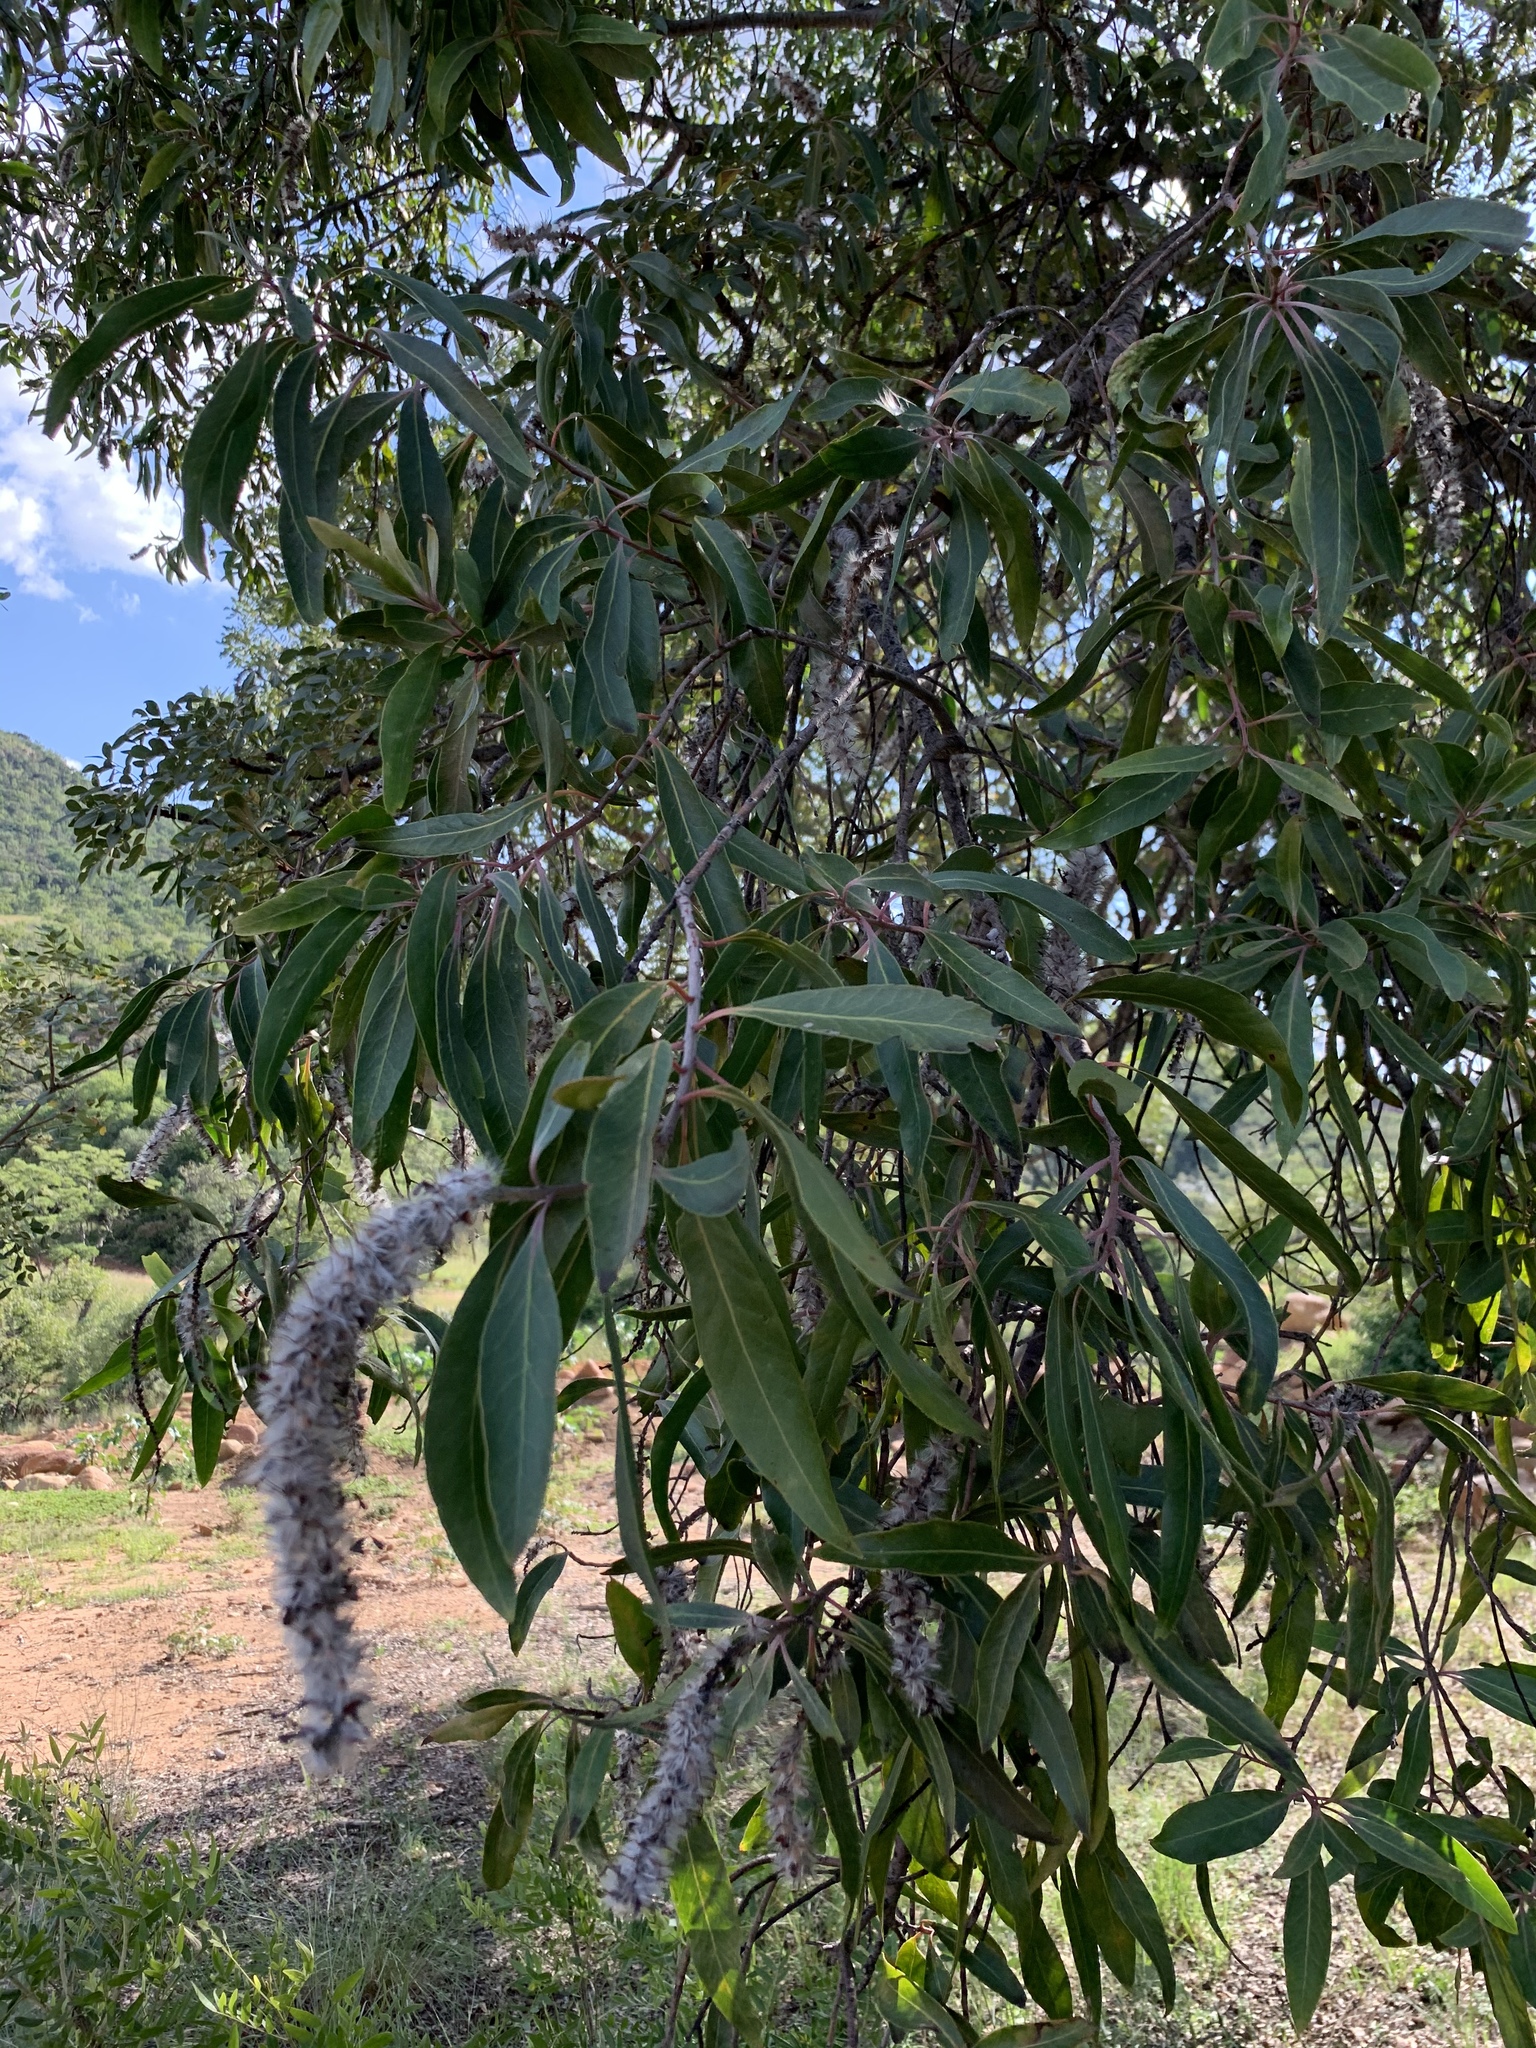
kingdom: Plantae
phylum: Tracheophyta
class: Magnoliopsida
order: Proteales
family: Proteaceae
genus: Faurea
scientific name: Faurea saligna
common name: African bean
